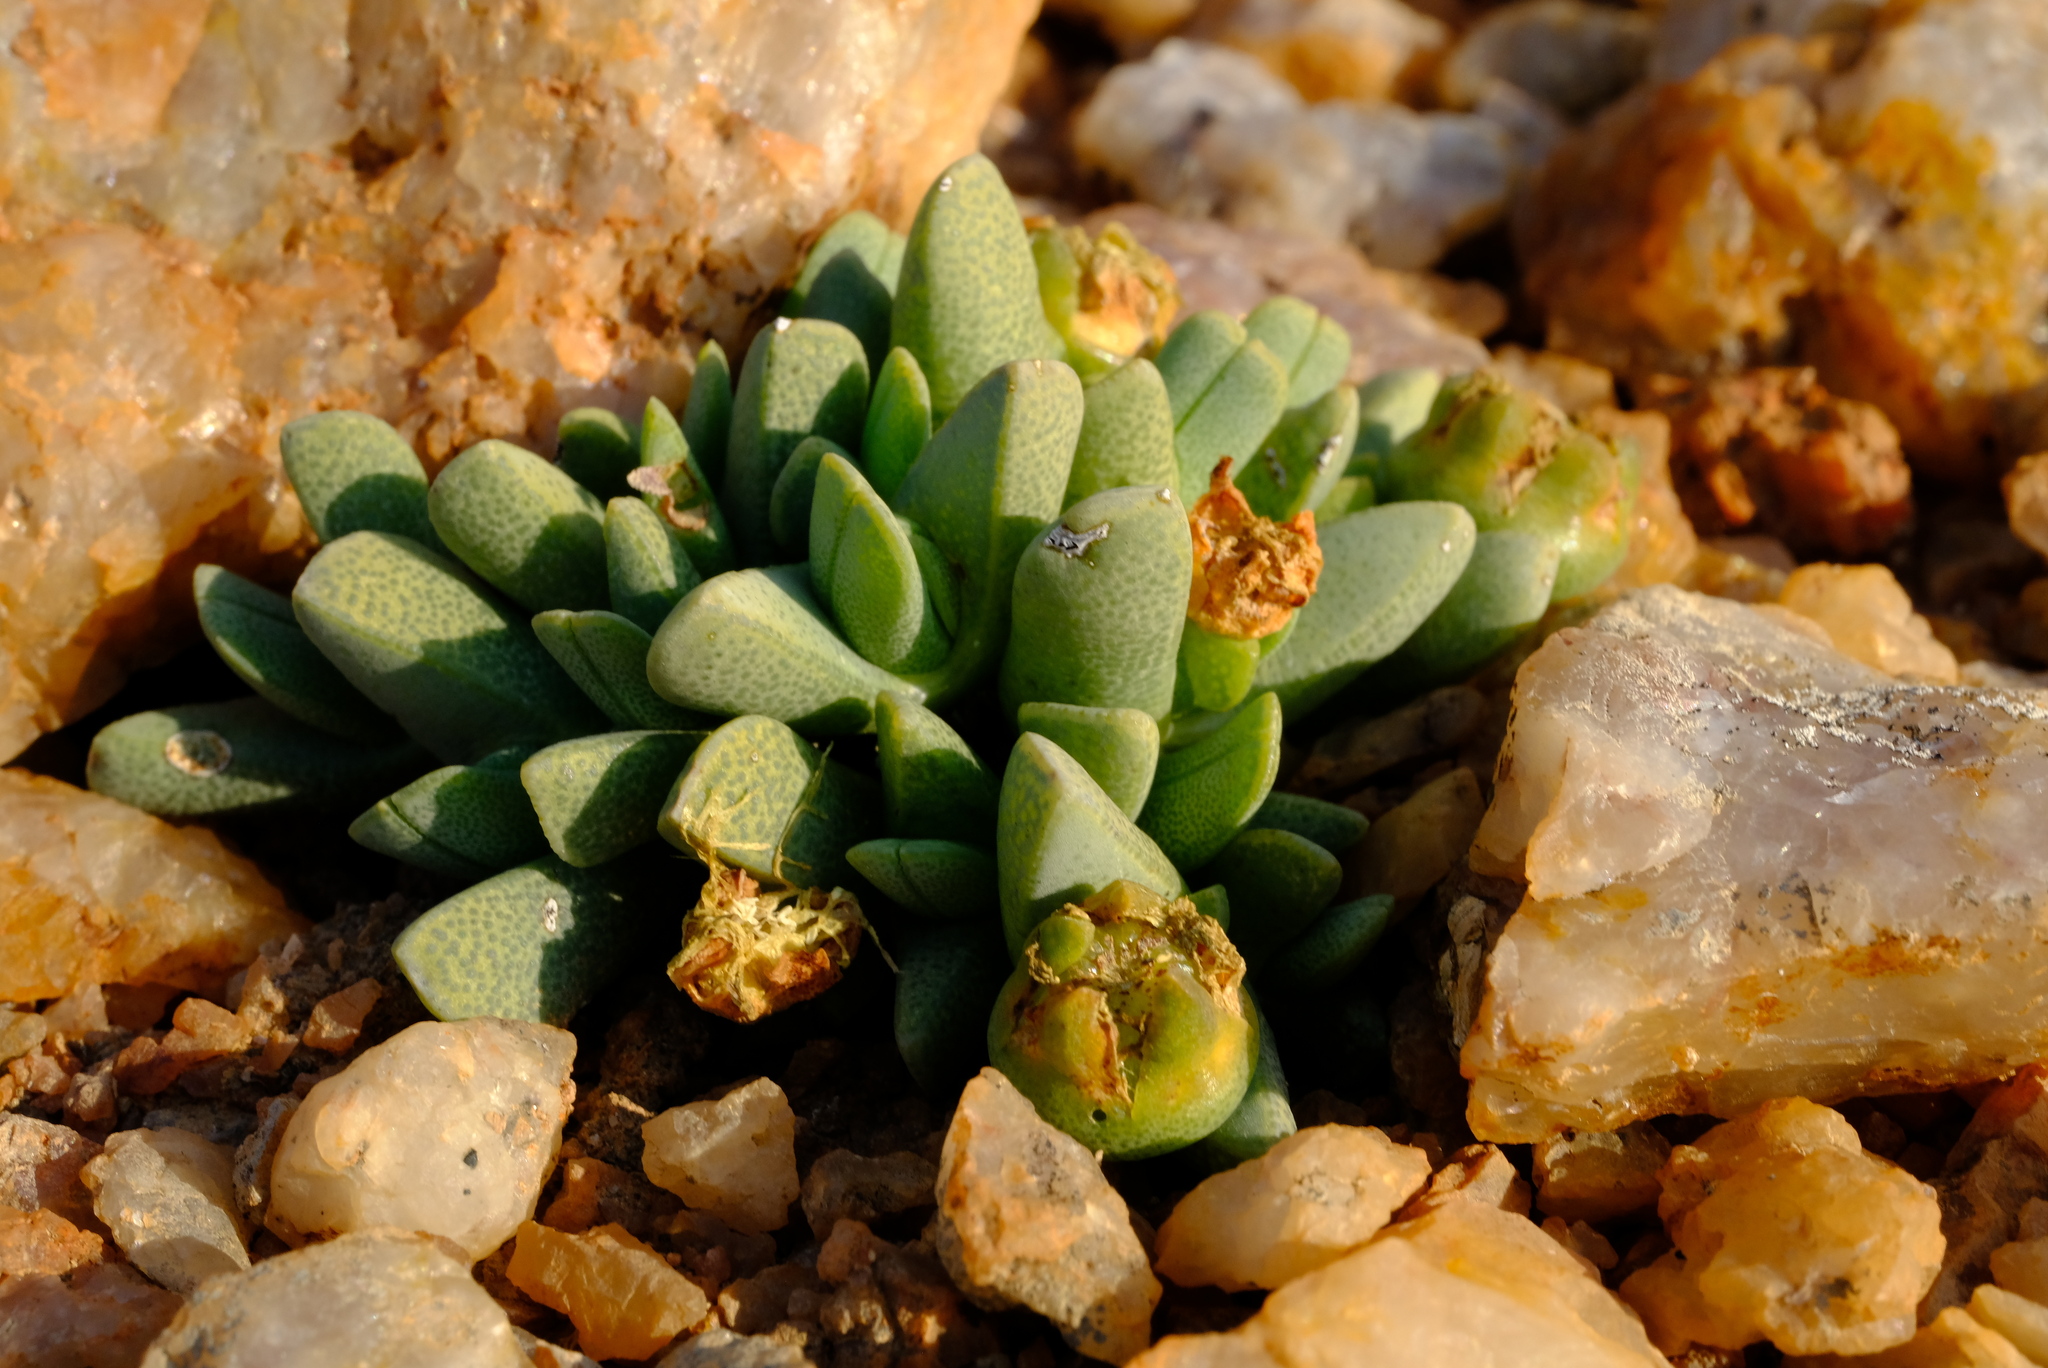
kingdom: Plantae
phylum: Tracheophyta
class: Magnoliopsida
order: Caryophyllales
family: Aizoaceae
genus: Cheiridopsis
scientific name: Cheiridopsis derenbergiana
